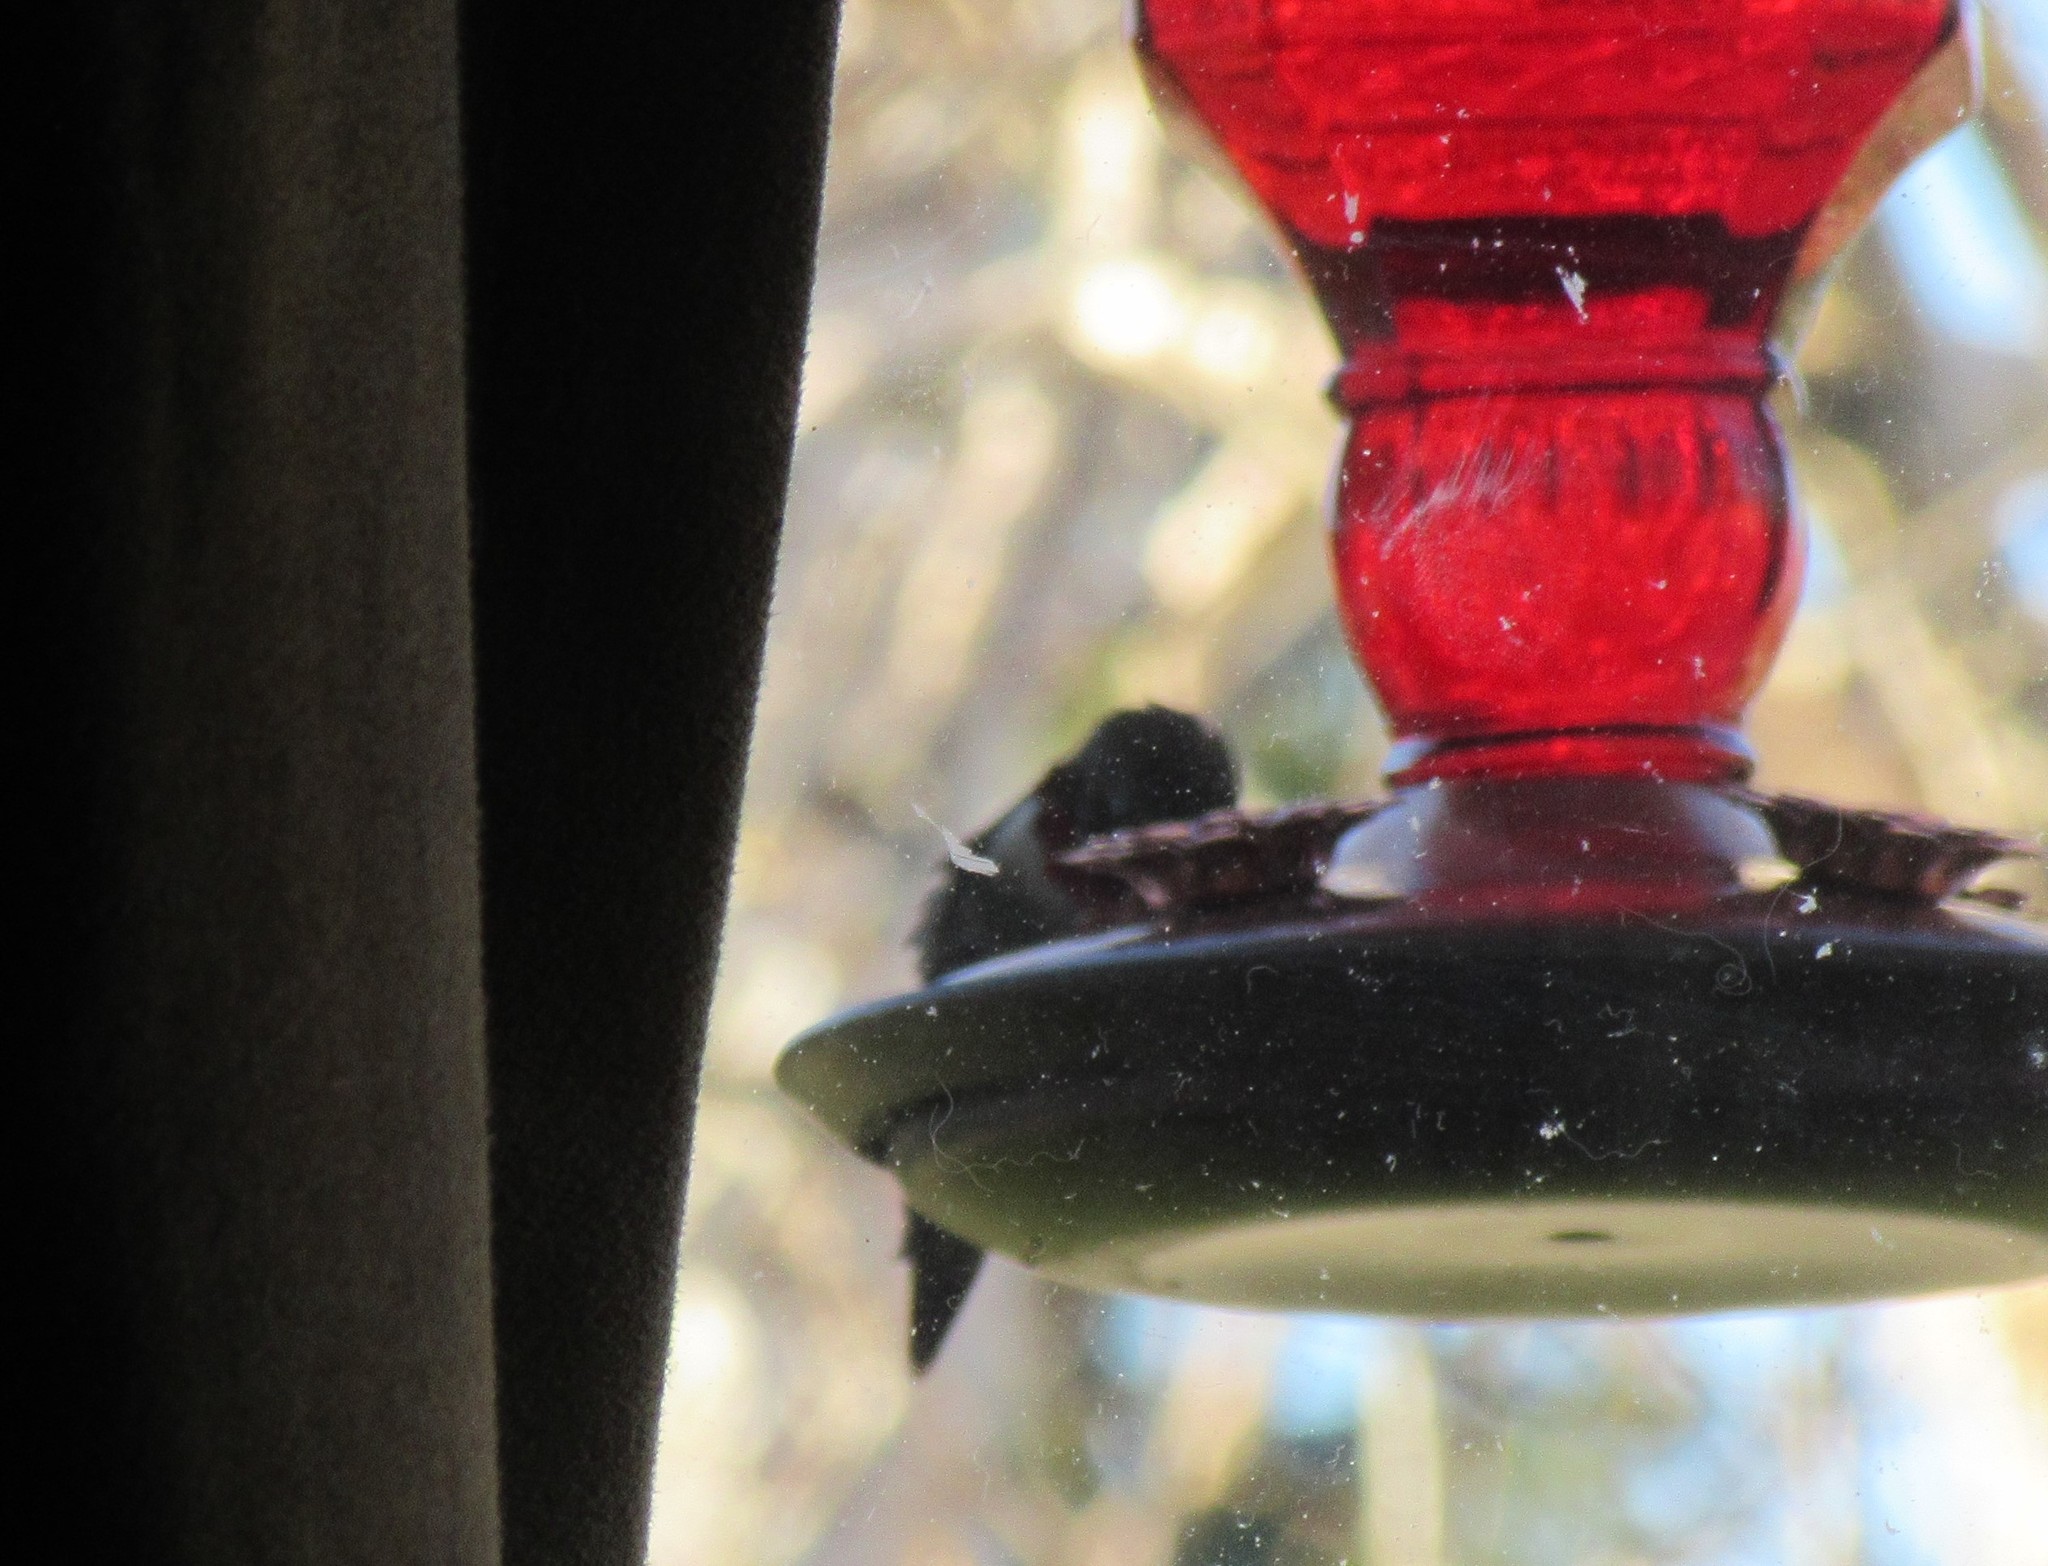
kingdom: Animalia
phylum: Chordata
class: Aves
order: Apodiformes
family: Trochilidae
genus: Archilochus
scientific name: Archilochus colubris
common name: Ruby-throated hummingbird
